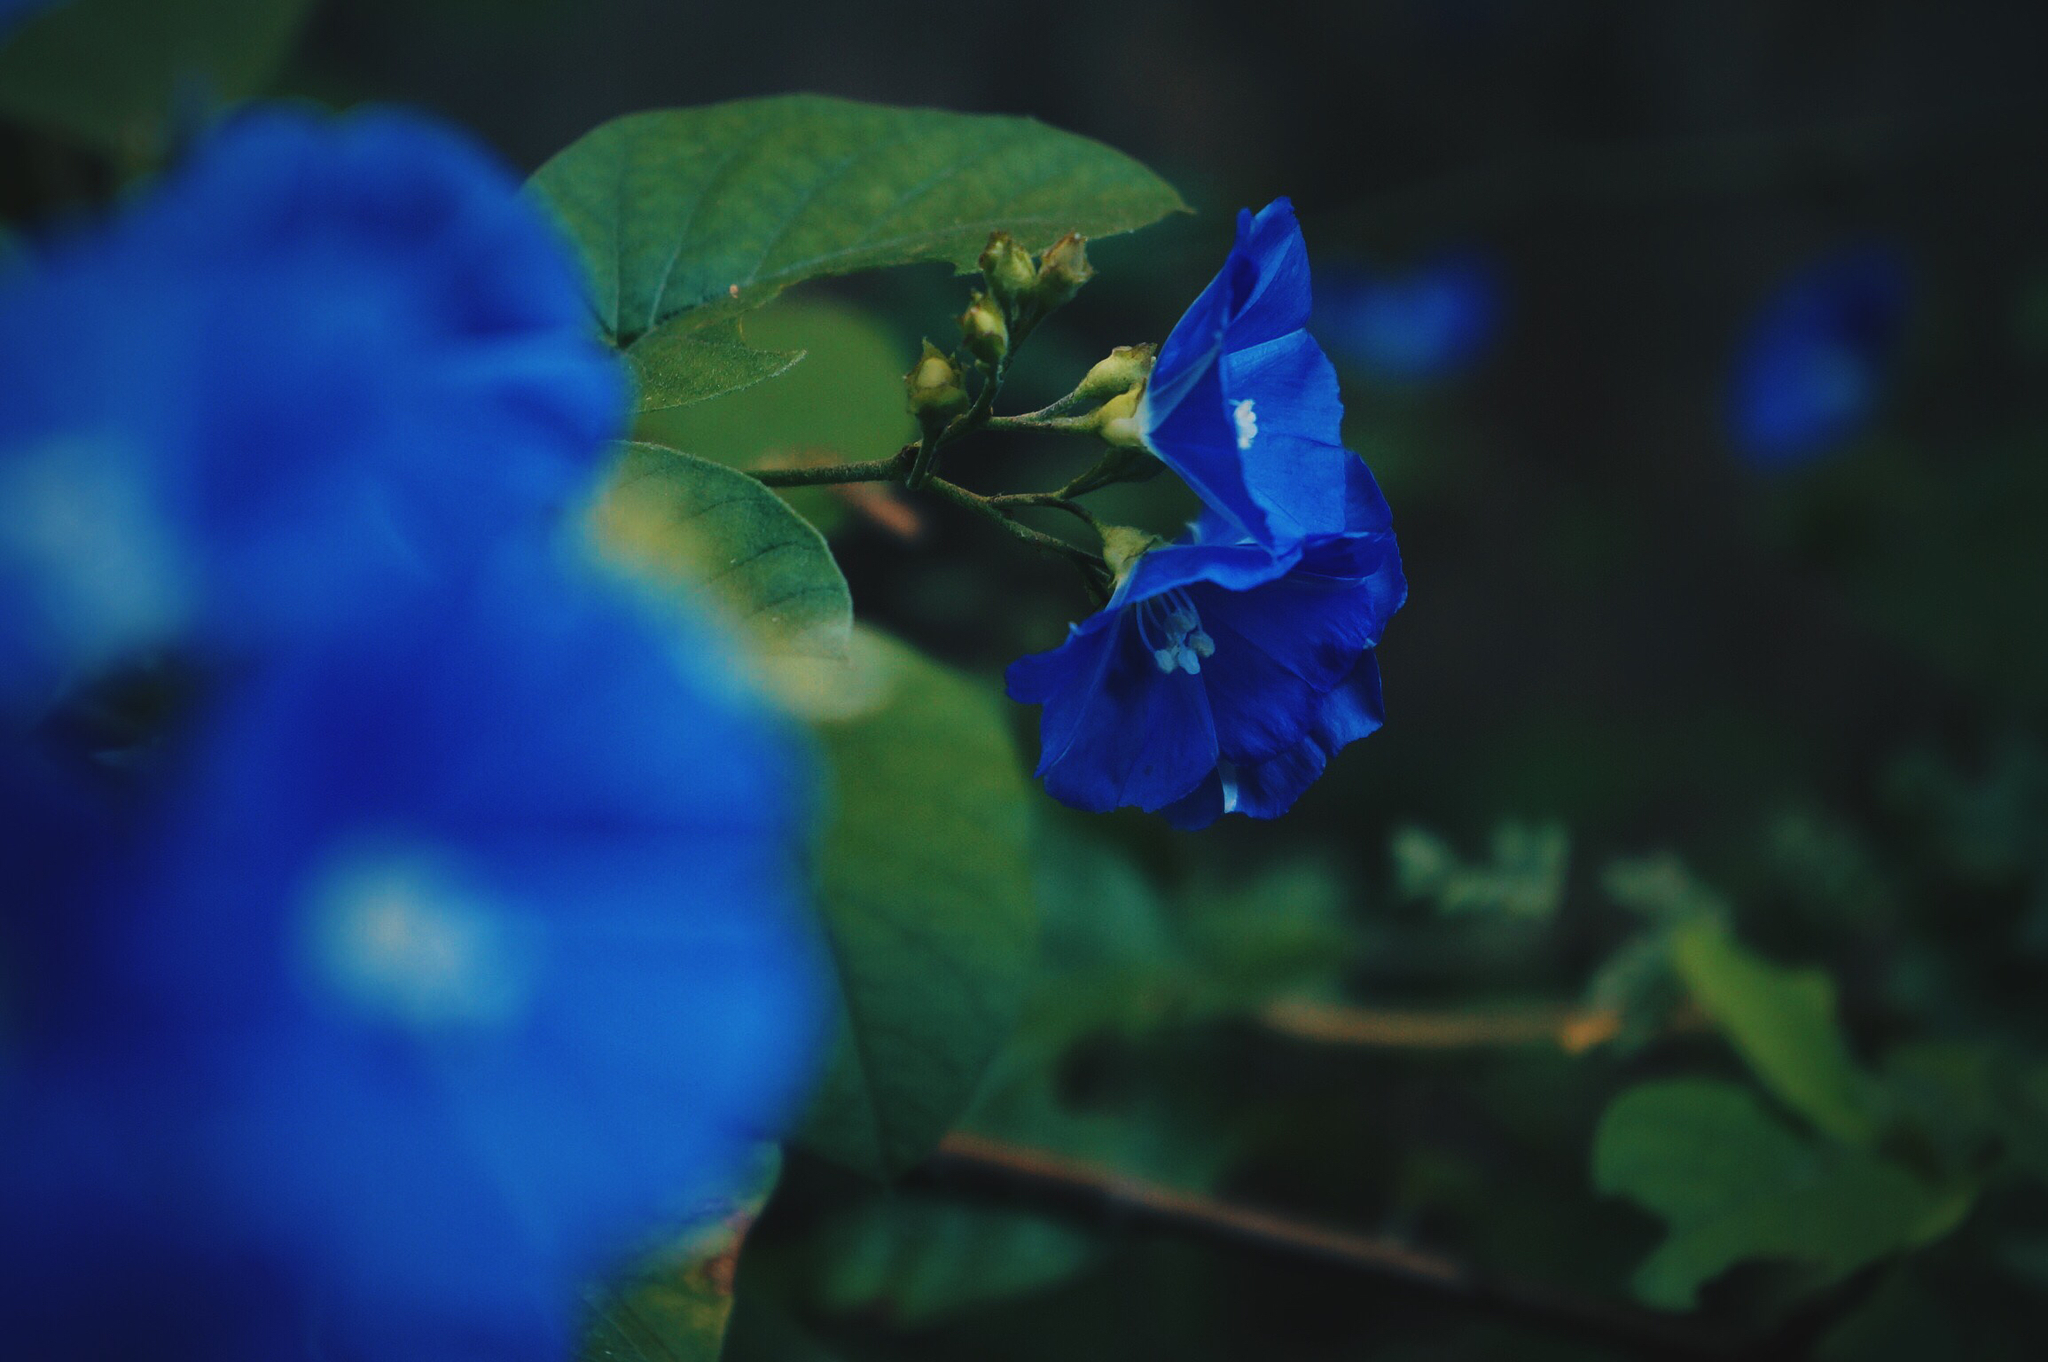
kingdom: Plantae
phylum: Tracheophyta
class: Magnoliopsida
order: Solanales
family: Convolvulaceae
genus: Jacquemontia
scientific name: Jacquemontia pentanthos
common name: Skyblue clustervine
